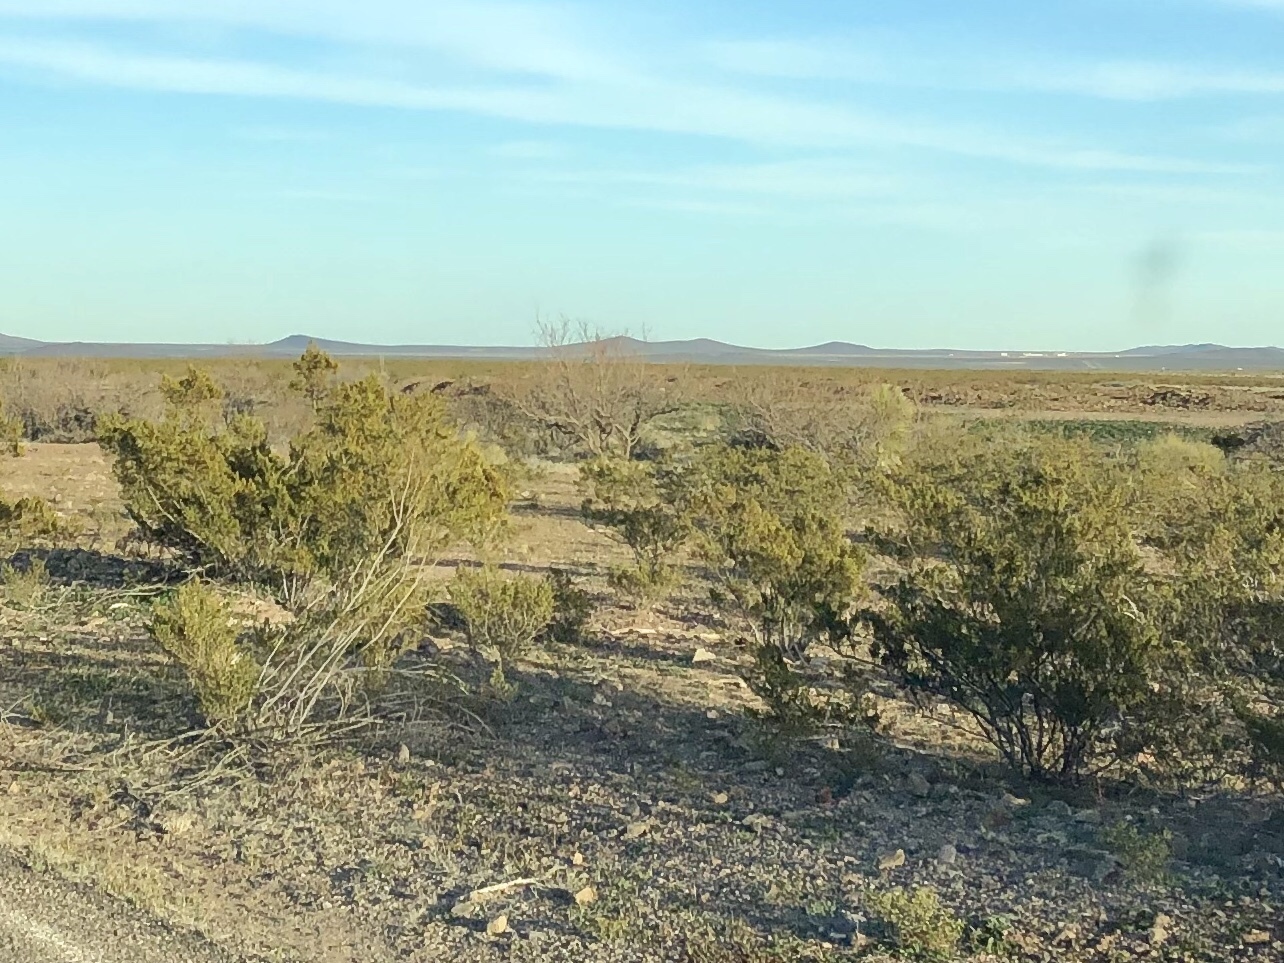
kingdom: Plantae
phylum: Tracheophyta
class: Magnoliopsida
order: Zygophyllales
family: Zygophyllaceae
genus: Larrea
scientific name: Larrea tridentata
